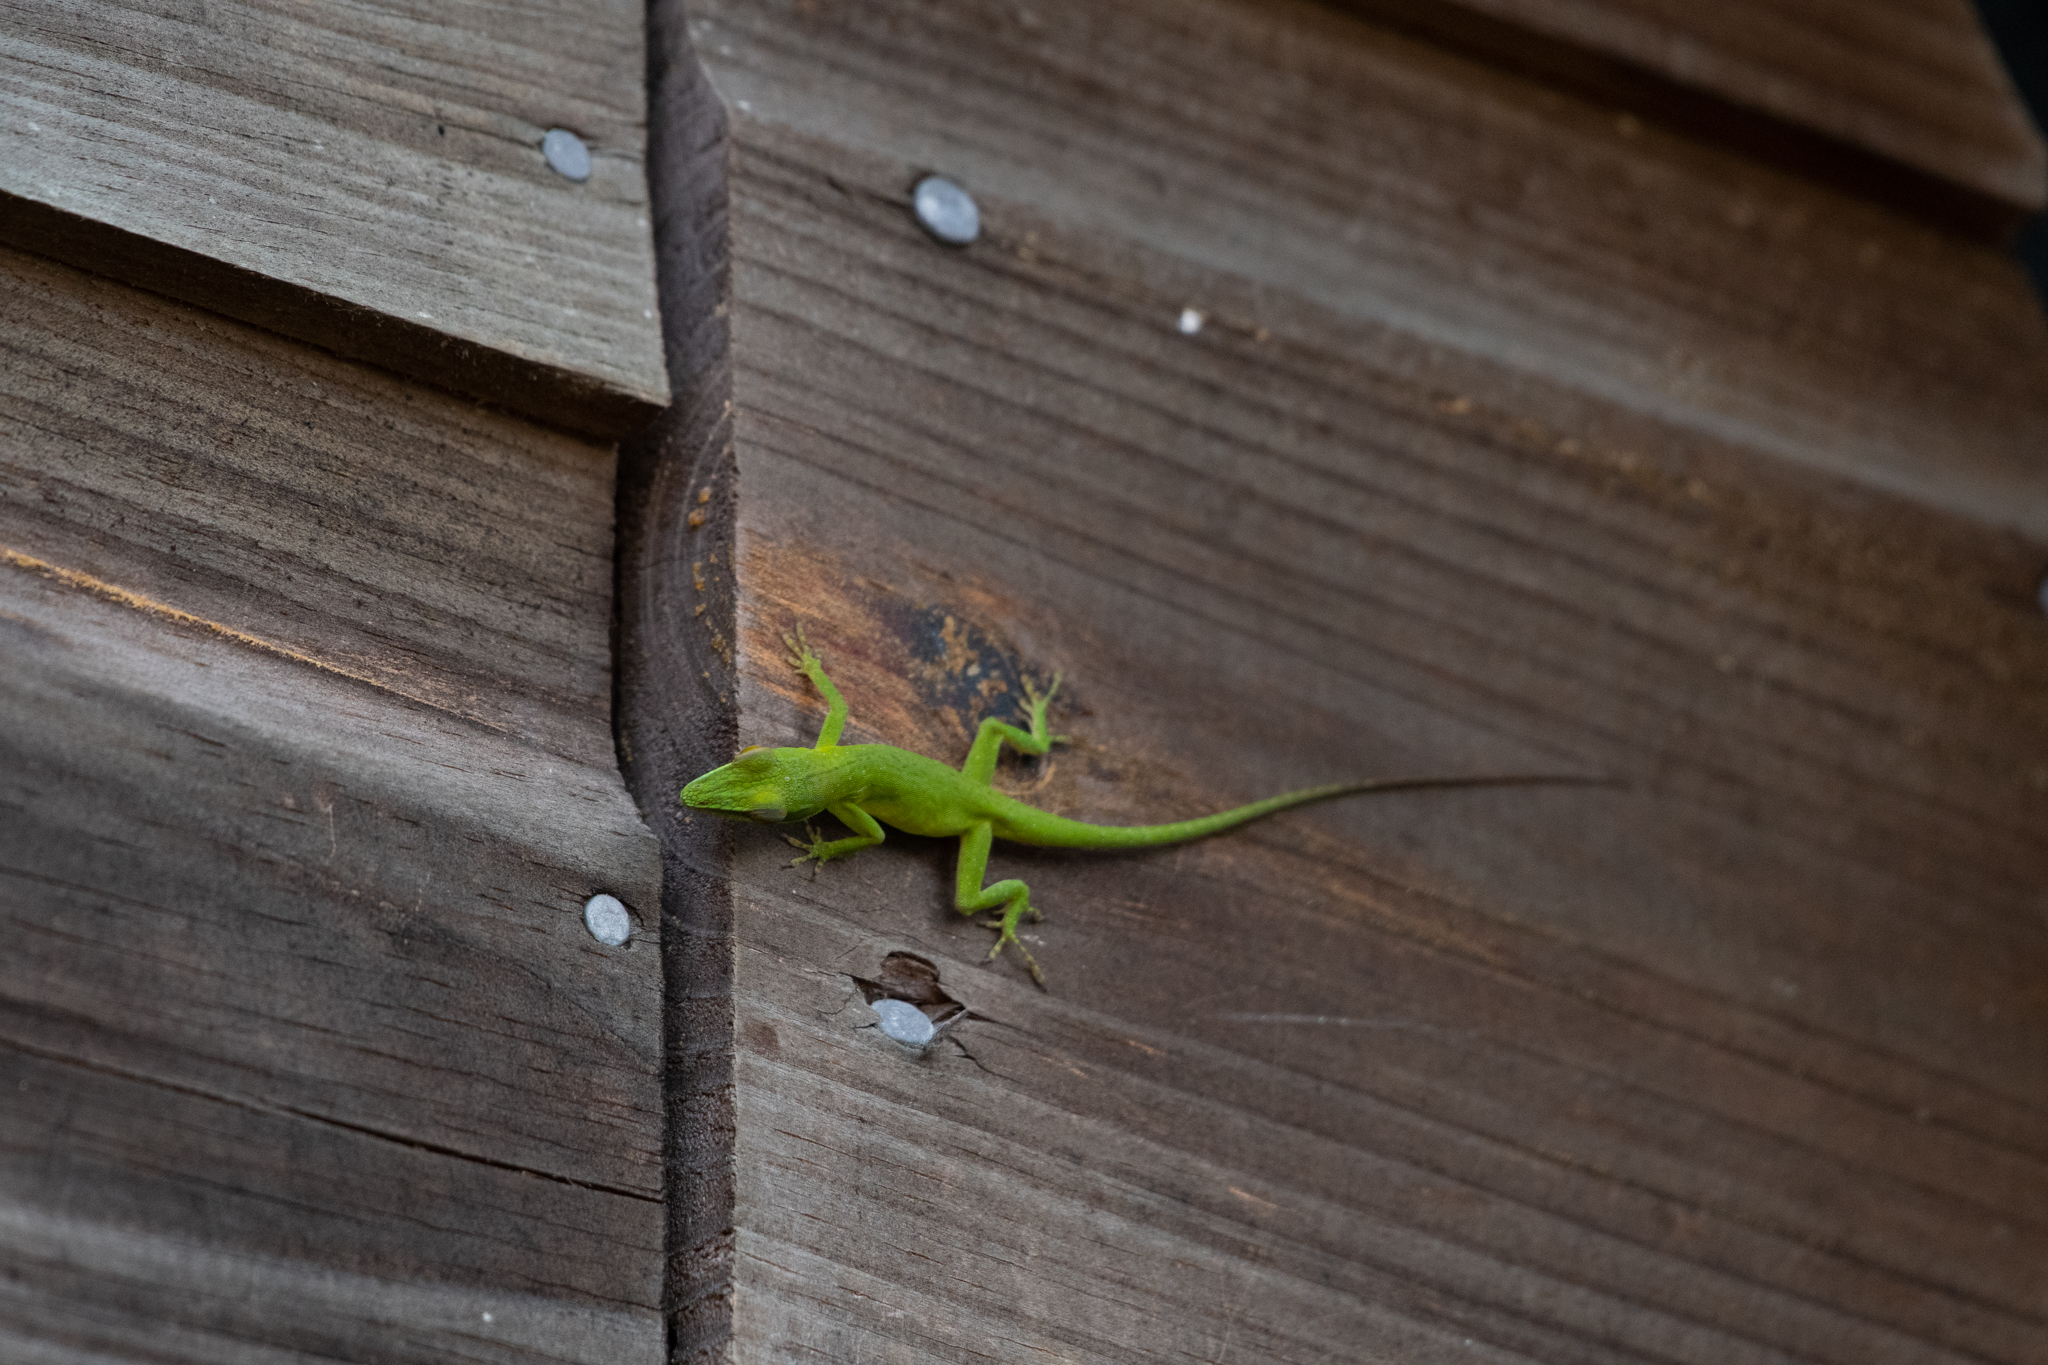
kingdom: Animalia
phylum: Chordata
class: Squamata
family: Dactyloidae
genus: Anolis
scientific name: Anolis allisoni
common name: Allison's anole
